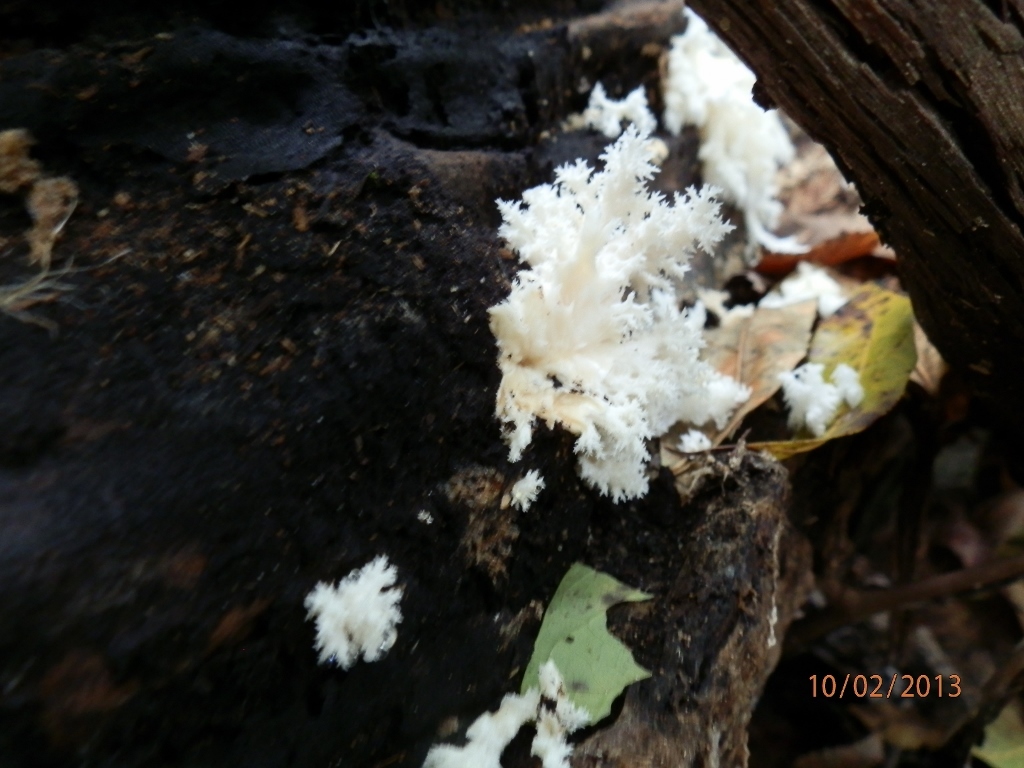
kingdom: Fungi
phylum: Basidiomycota
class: Agaricomycetes
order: Russulales
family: Hericiaceae
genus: Hericium
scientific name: Hericium coralloides
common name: Coral tooth
